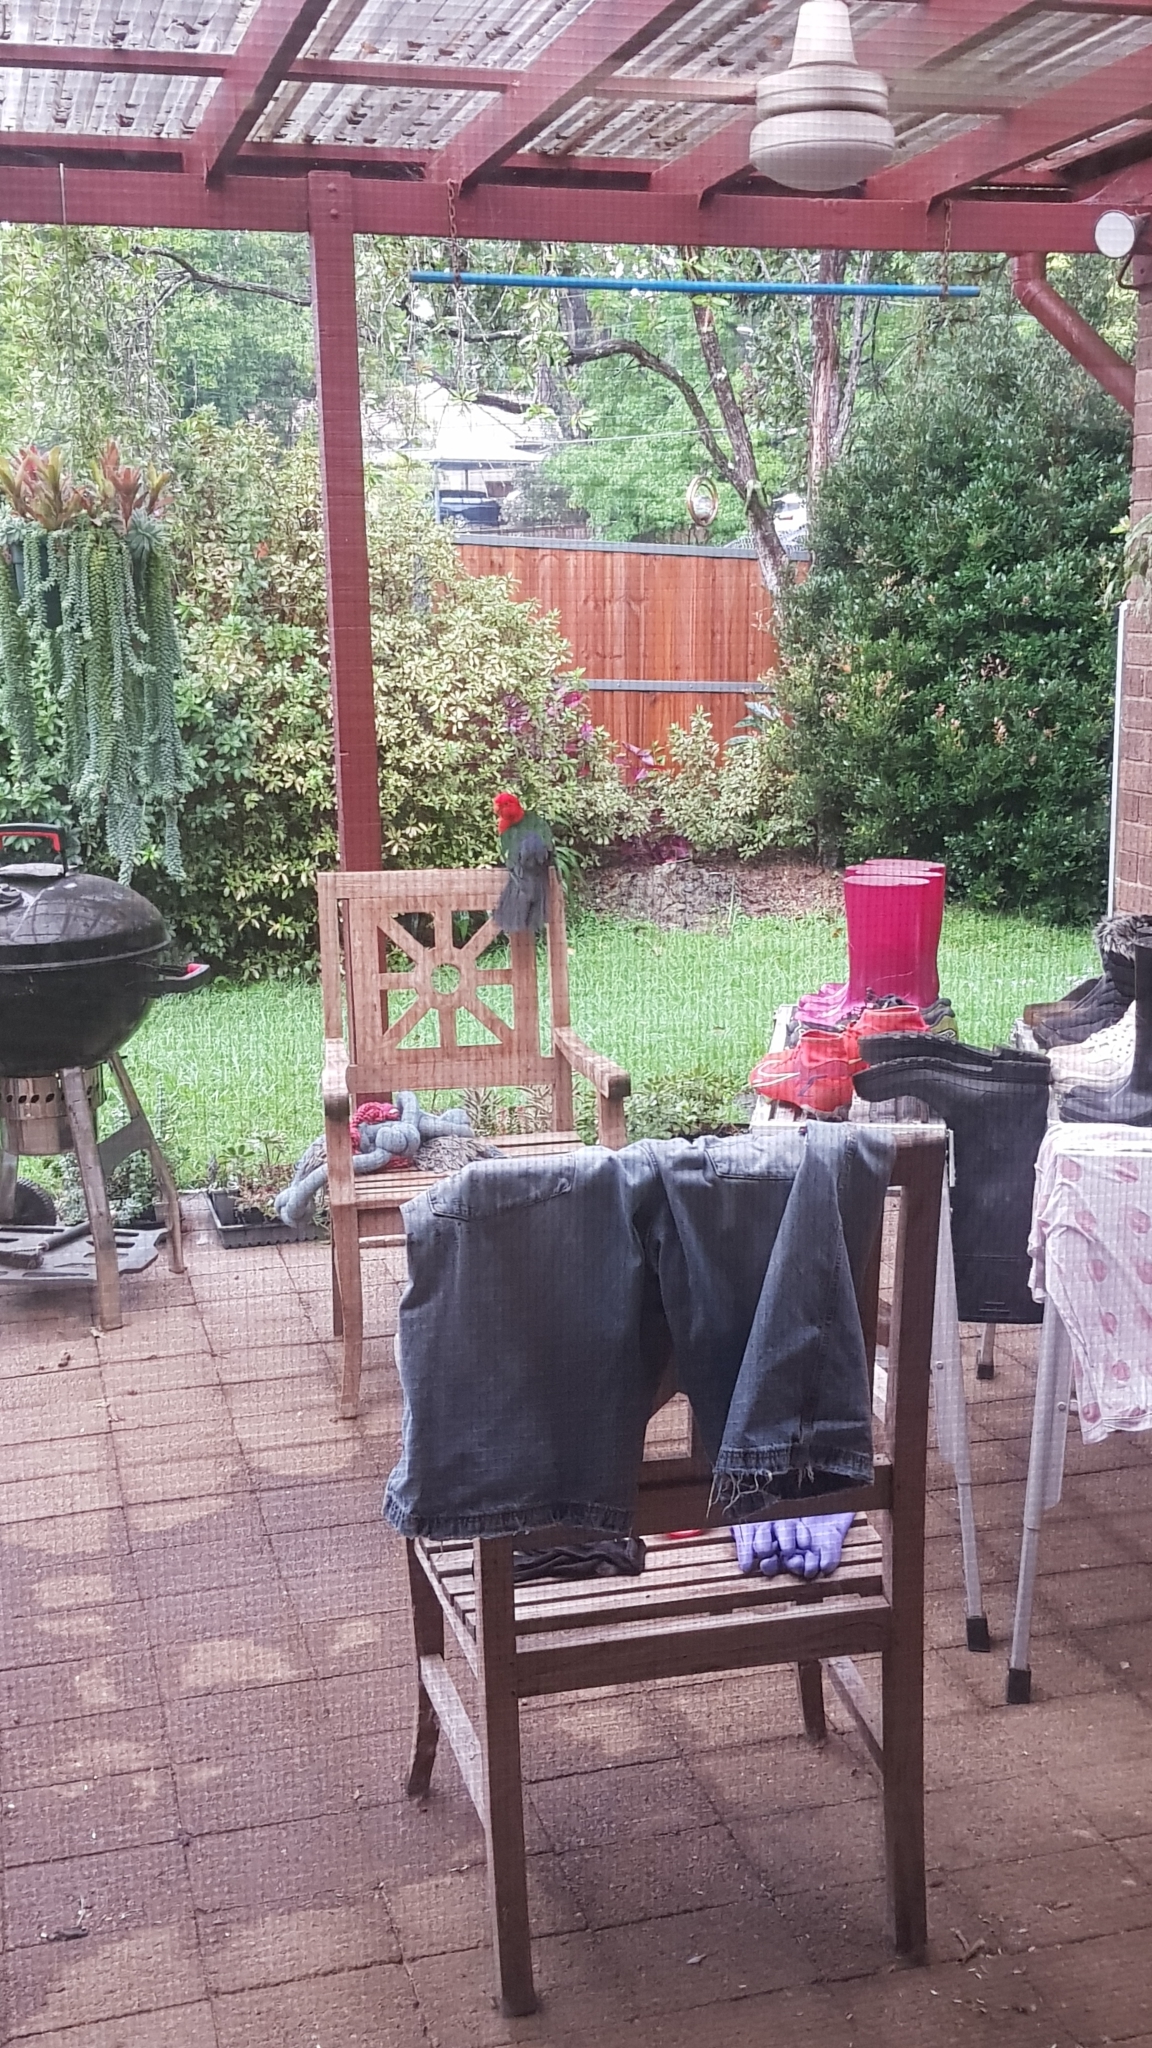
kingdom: Animalia
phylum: Chordata
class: Aves
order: Psittaciformes
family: Psittacidae
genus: Alisterus
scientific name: Alisterus scapularis
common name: Australian king parrot
